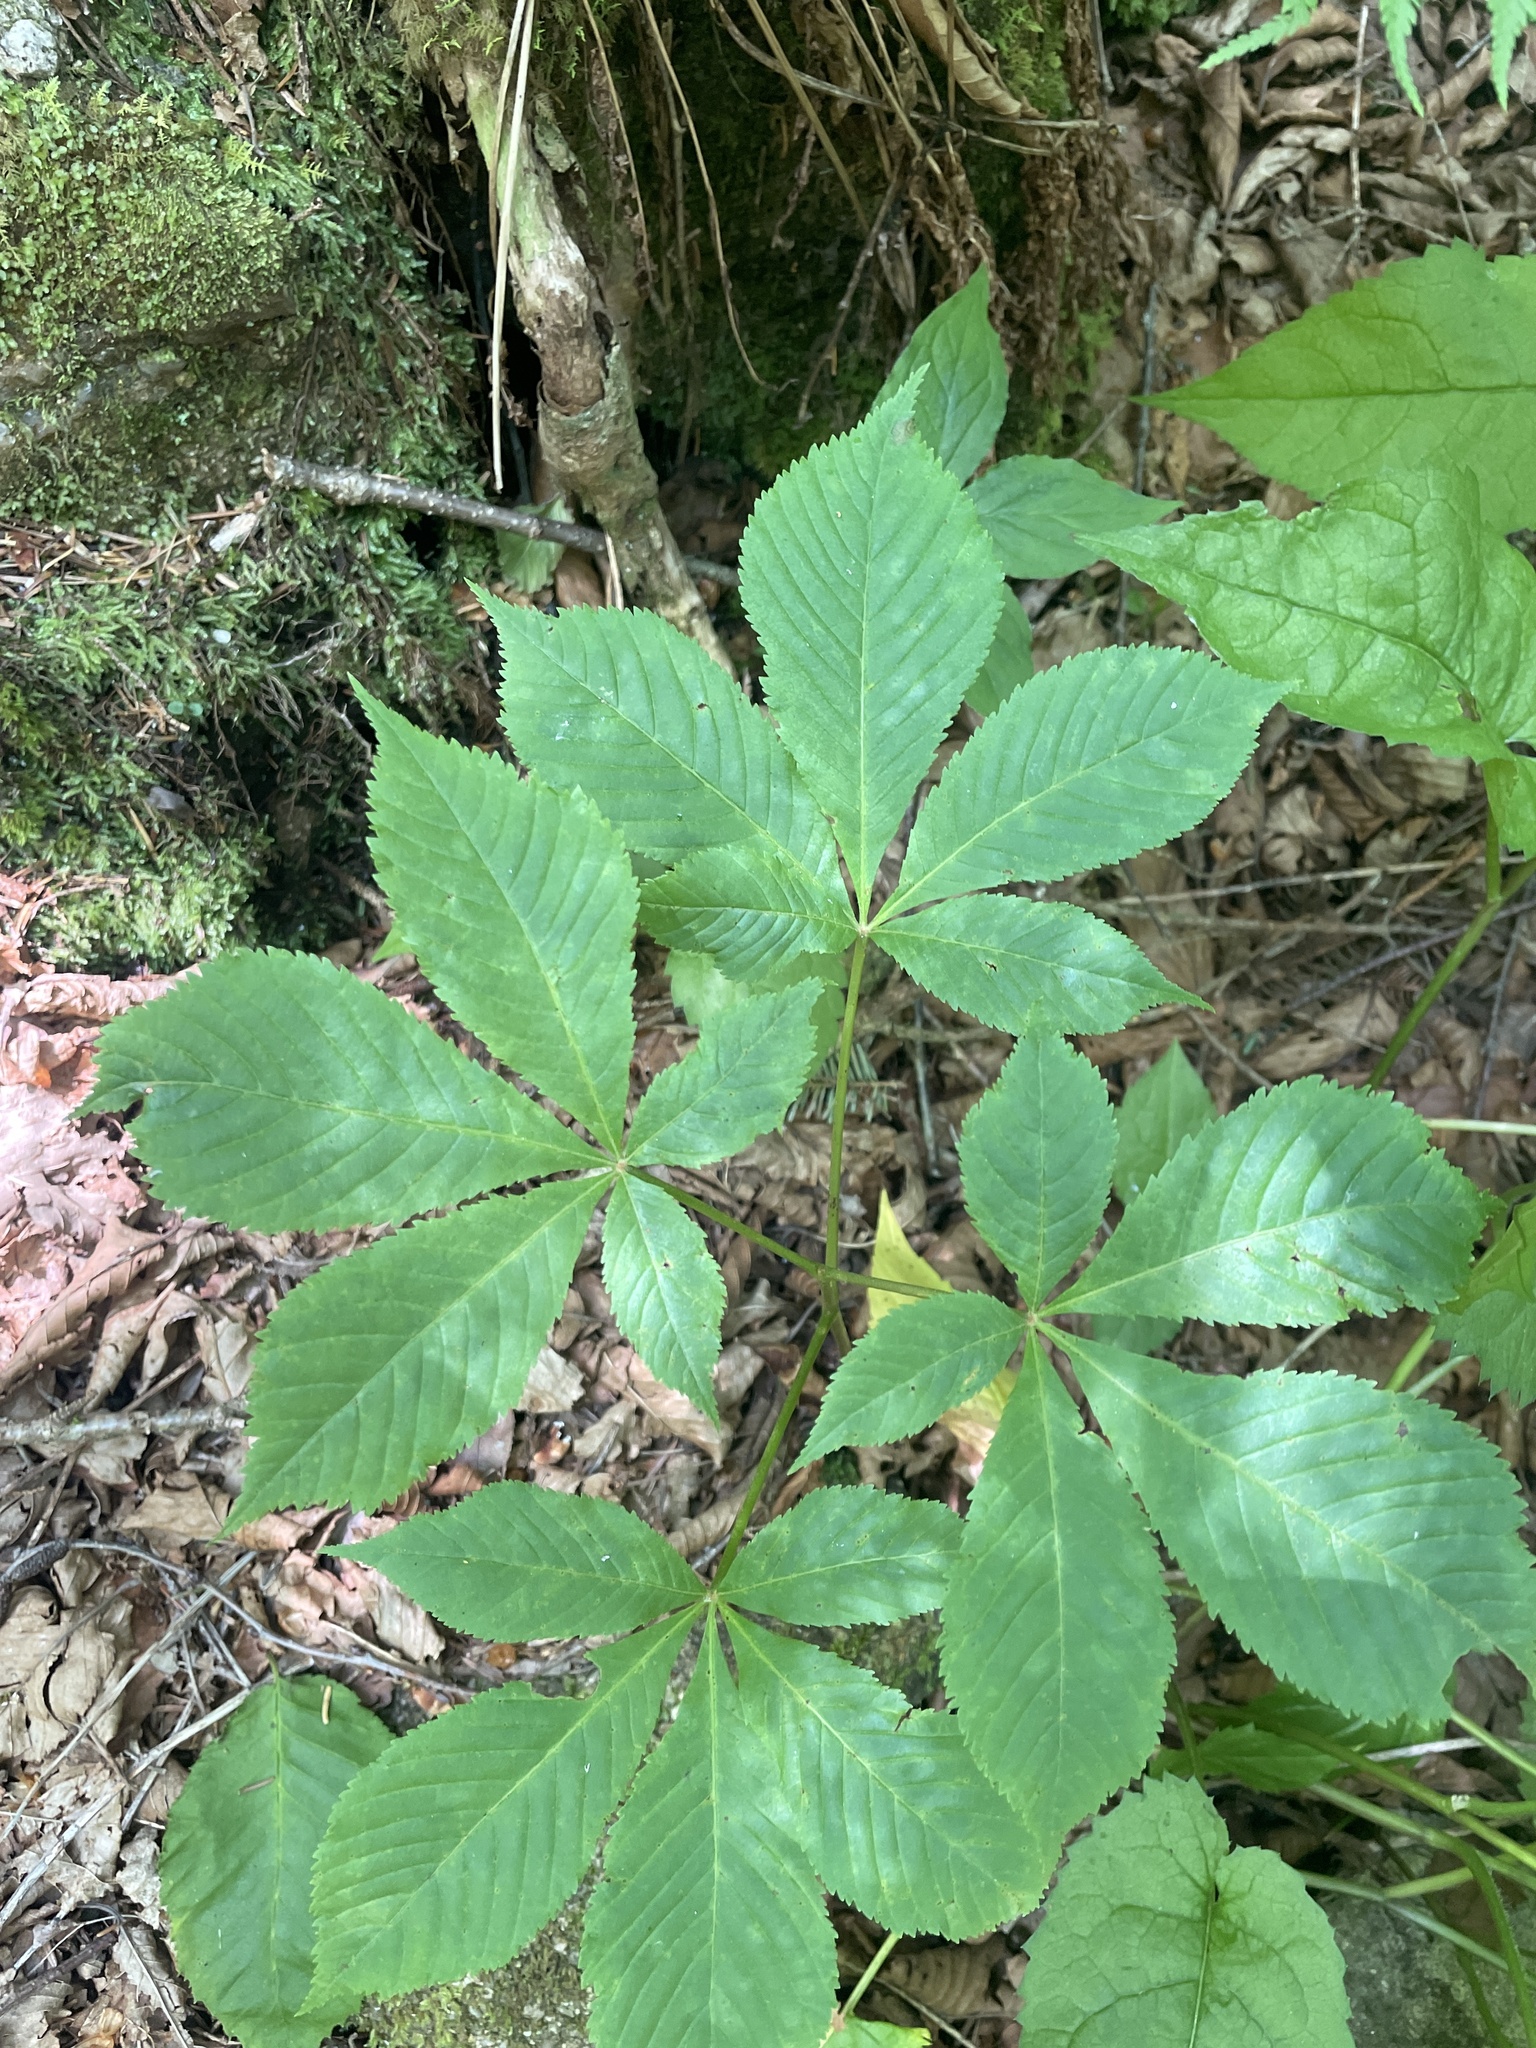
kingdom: Plantae
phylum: Tracheophyta
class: Magnoliopsida
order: Sapindales
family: Sapindaceae
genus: Aesculus
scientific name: Aesculus flava
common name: Yellow buckeye
